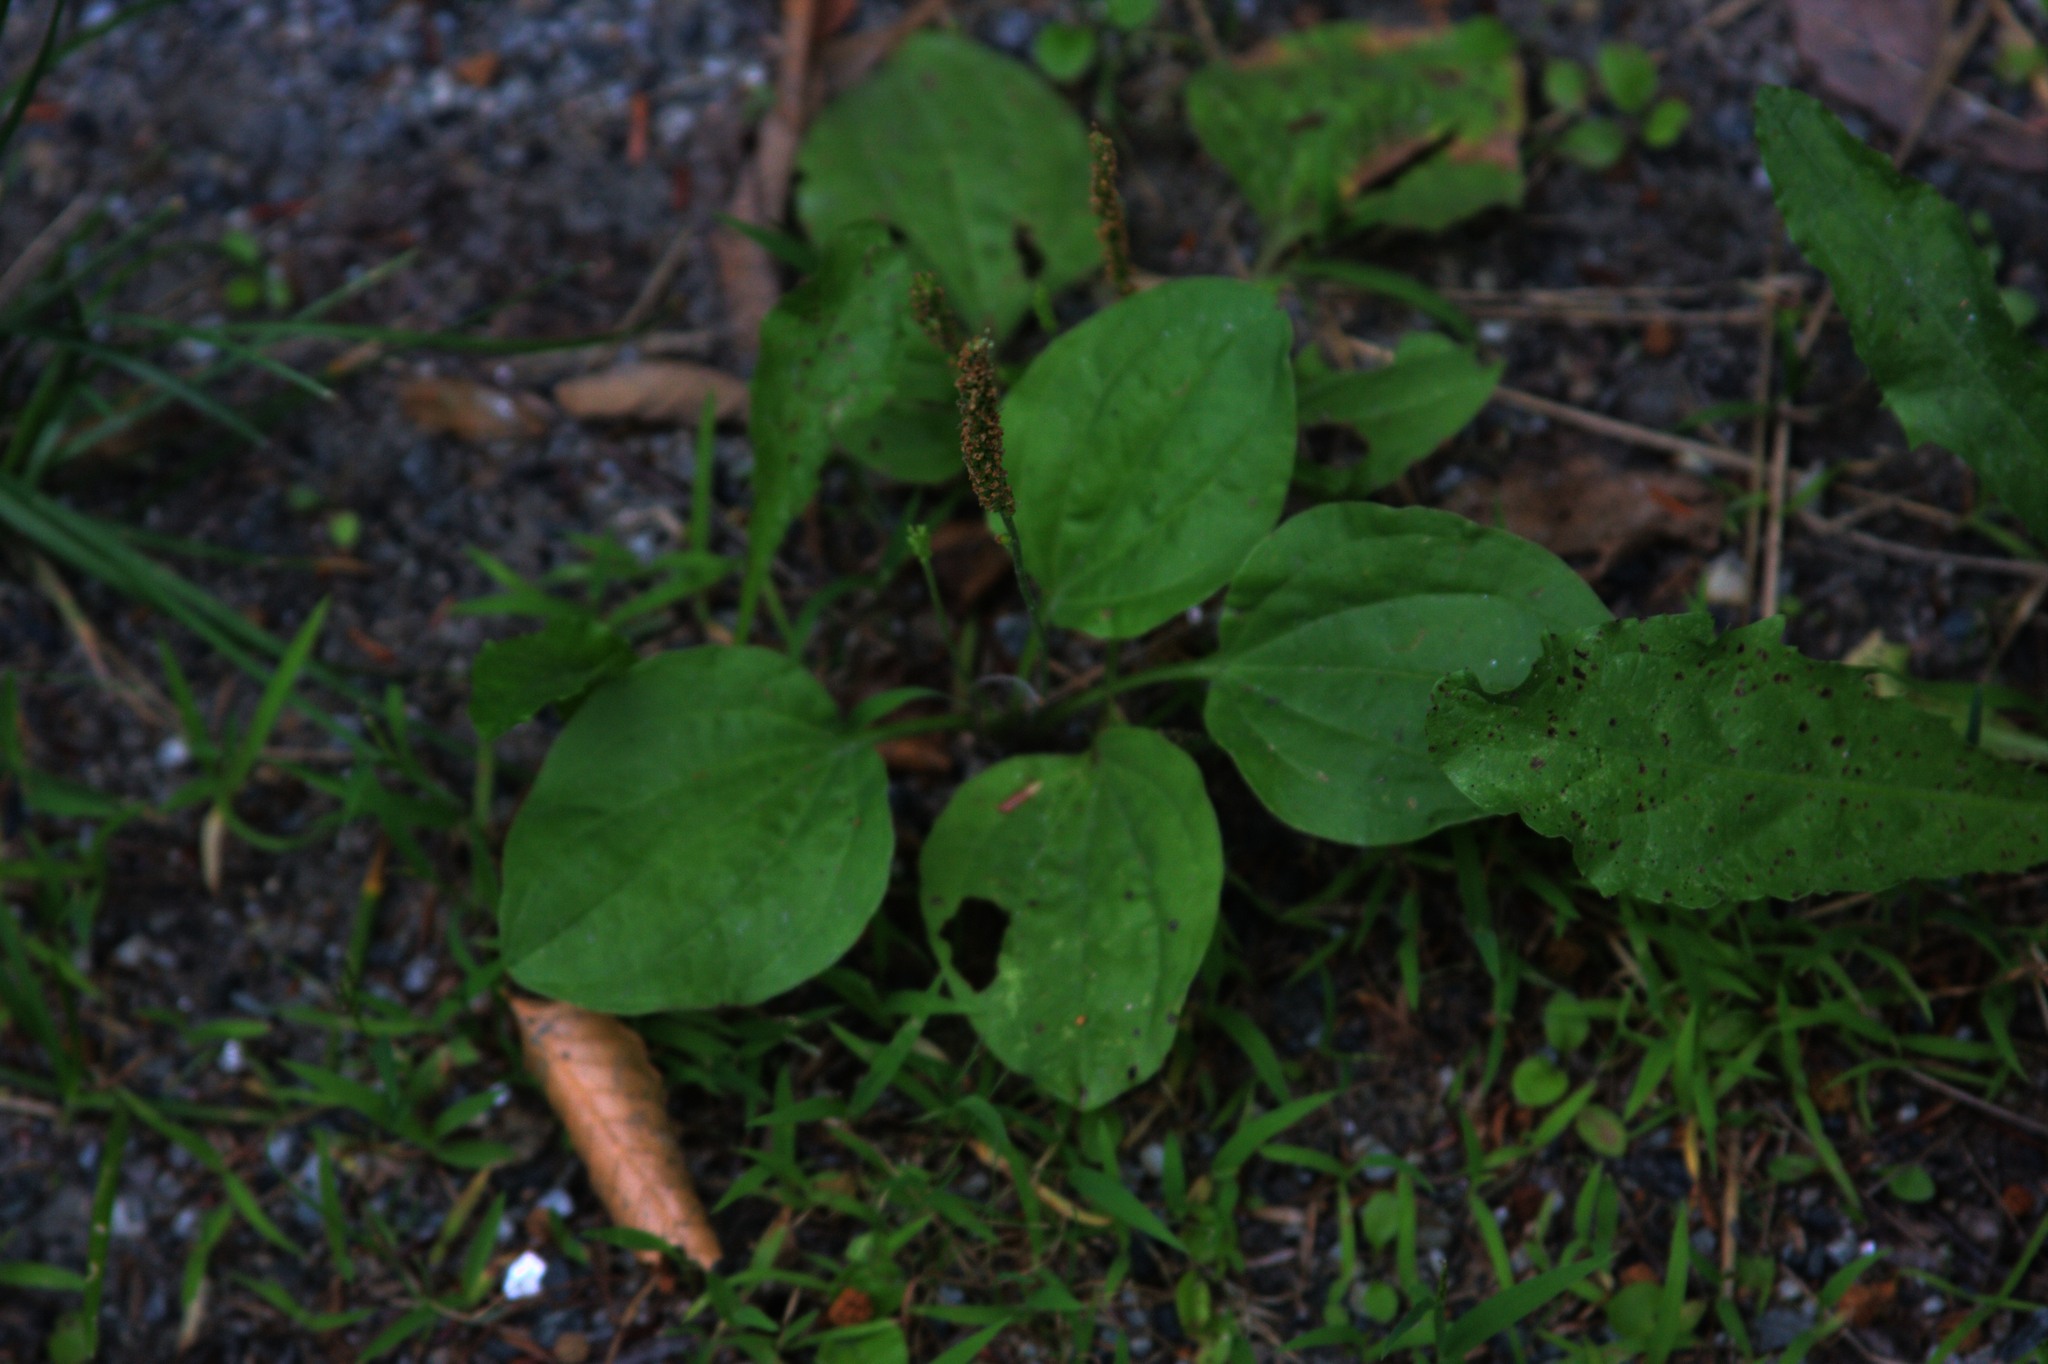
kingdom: Plantae
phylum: Tracheophyta
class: Magnoliopsida
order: Lamiales
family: Plantaginaceae
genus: Plantago
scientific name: Plantago major
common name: Common plantain
